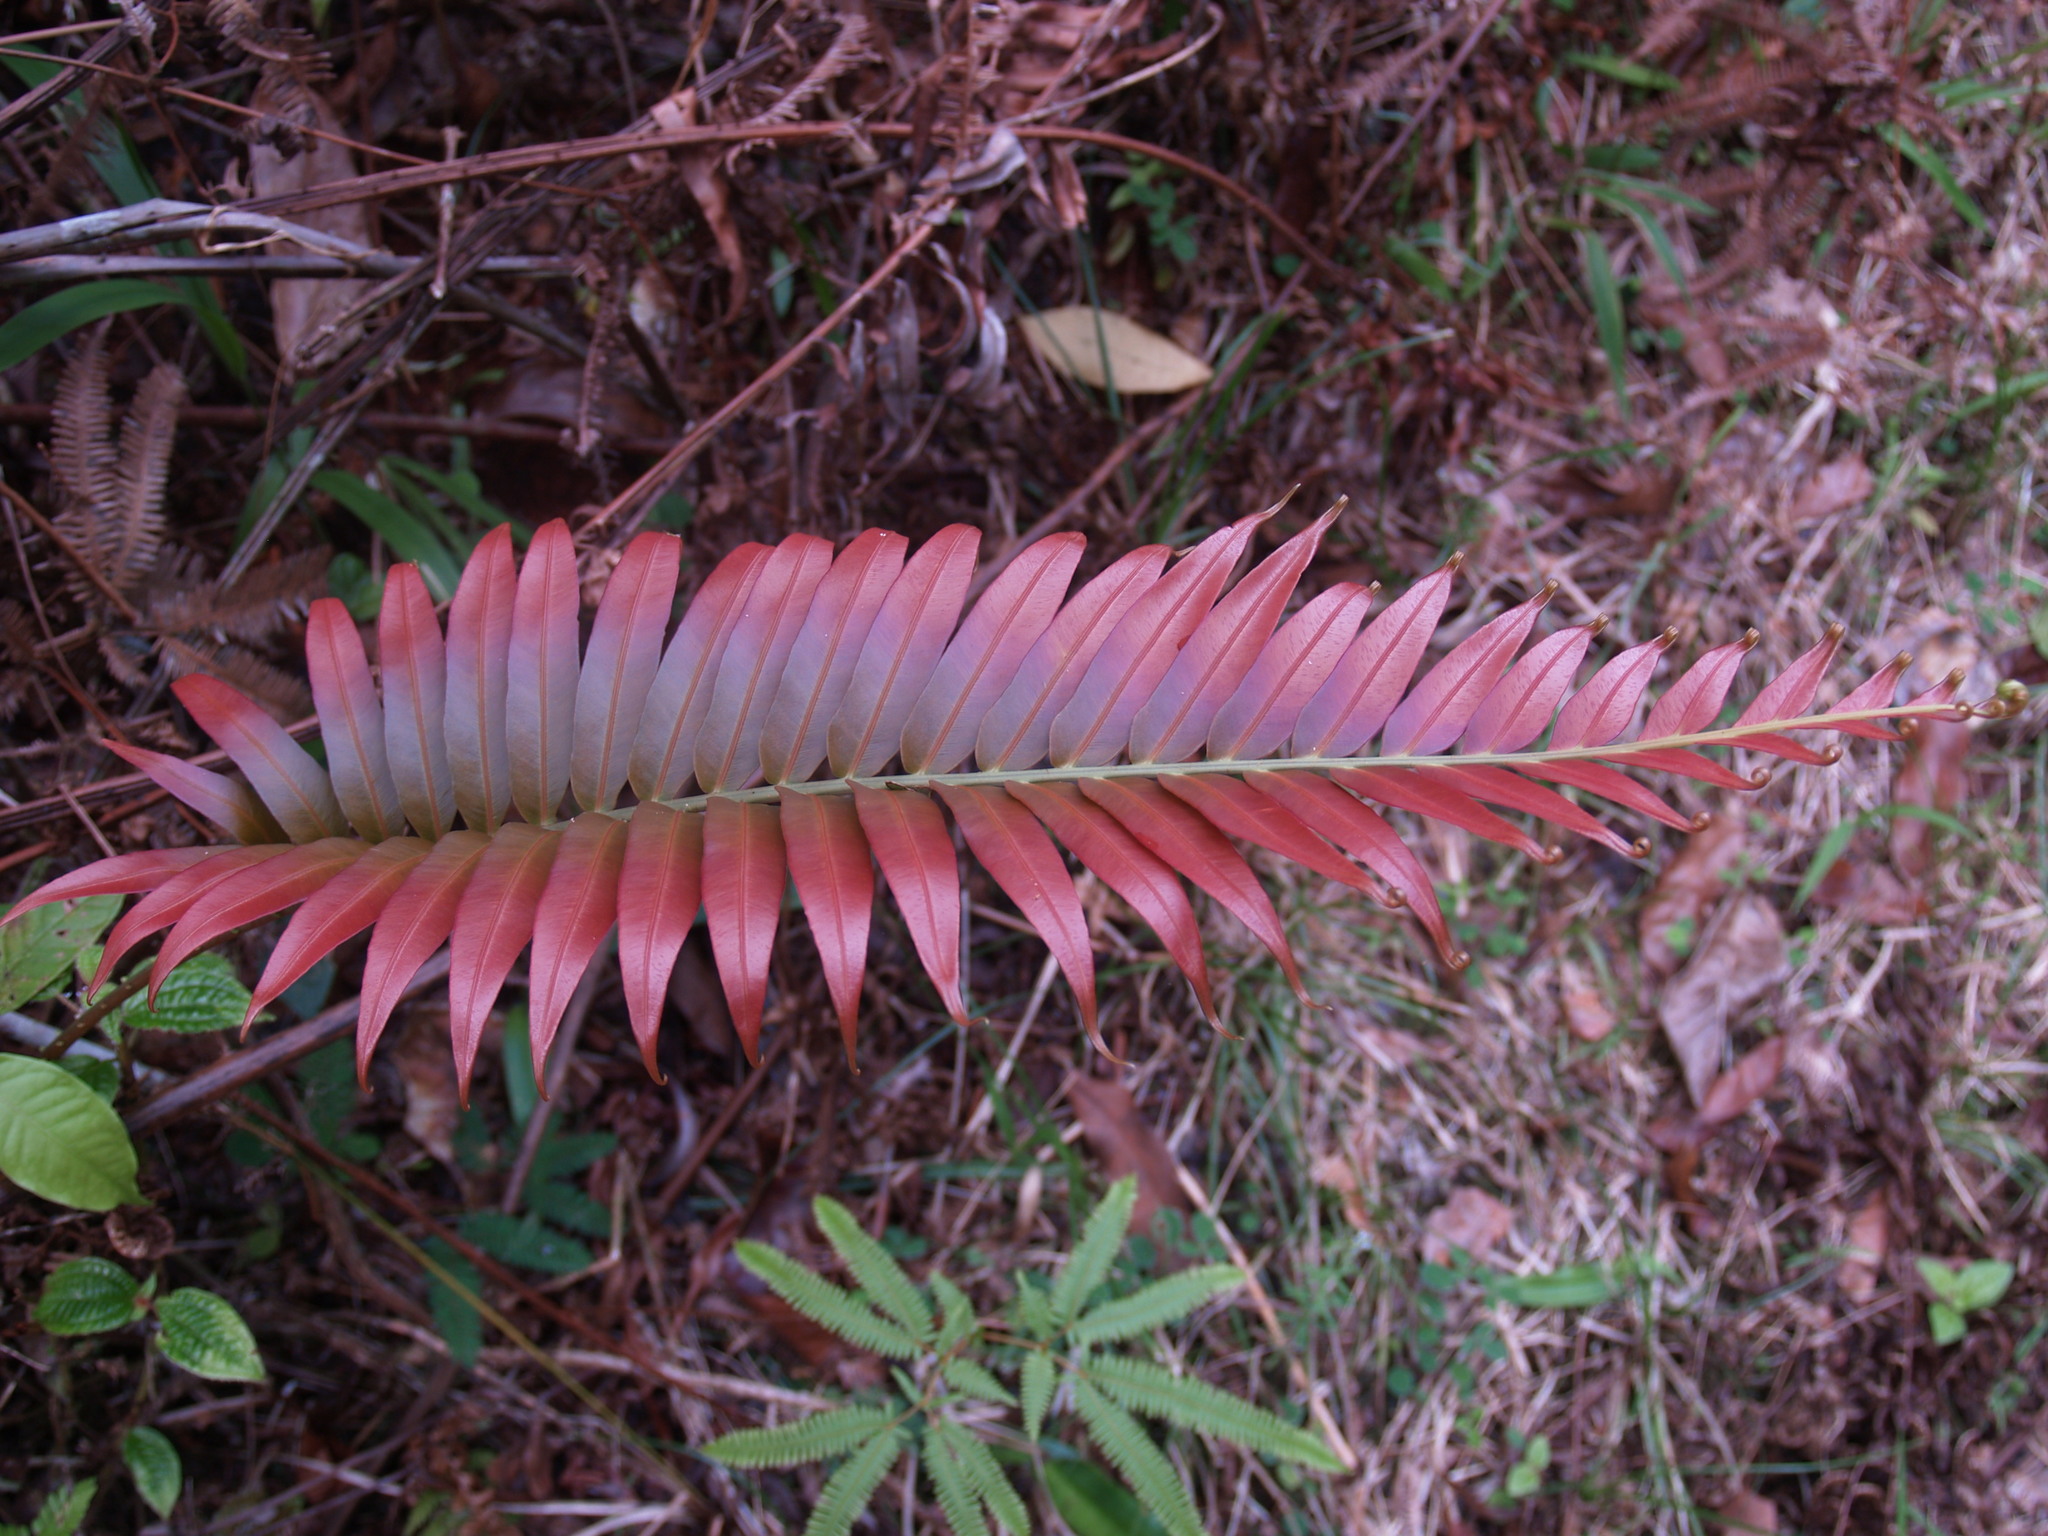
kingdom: Plantae
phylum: Tracheophyta
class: Polypodiopsida
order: Polypodiales
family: Blechnaceae
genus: Blechnopsis
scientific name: Blechnopsis orientalis
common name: Oriental blechnum
